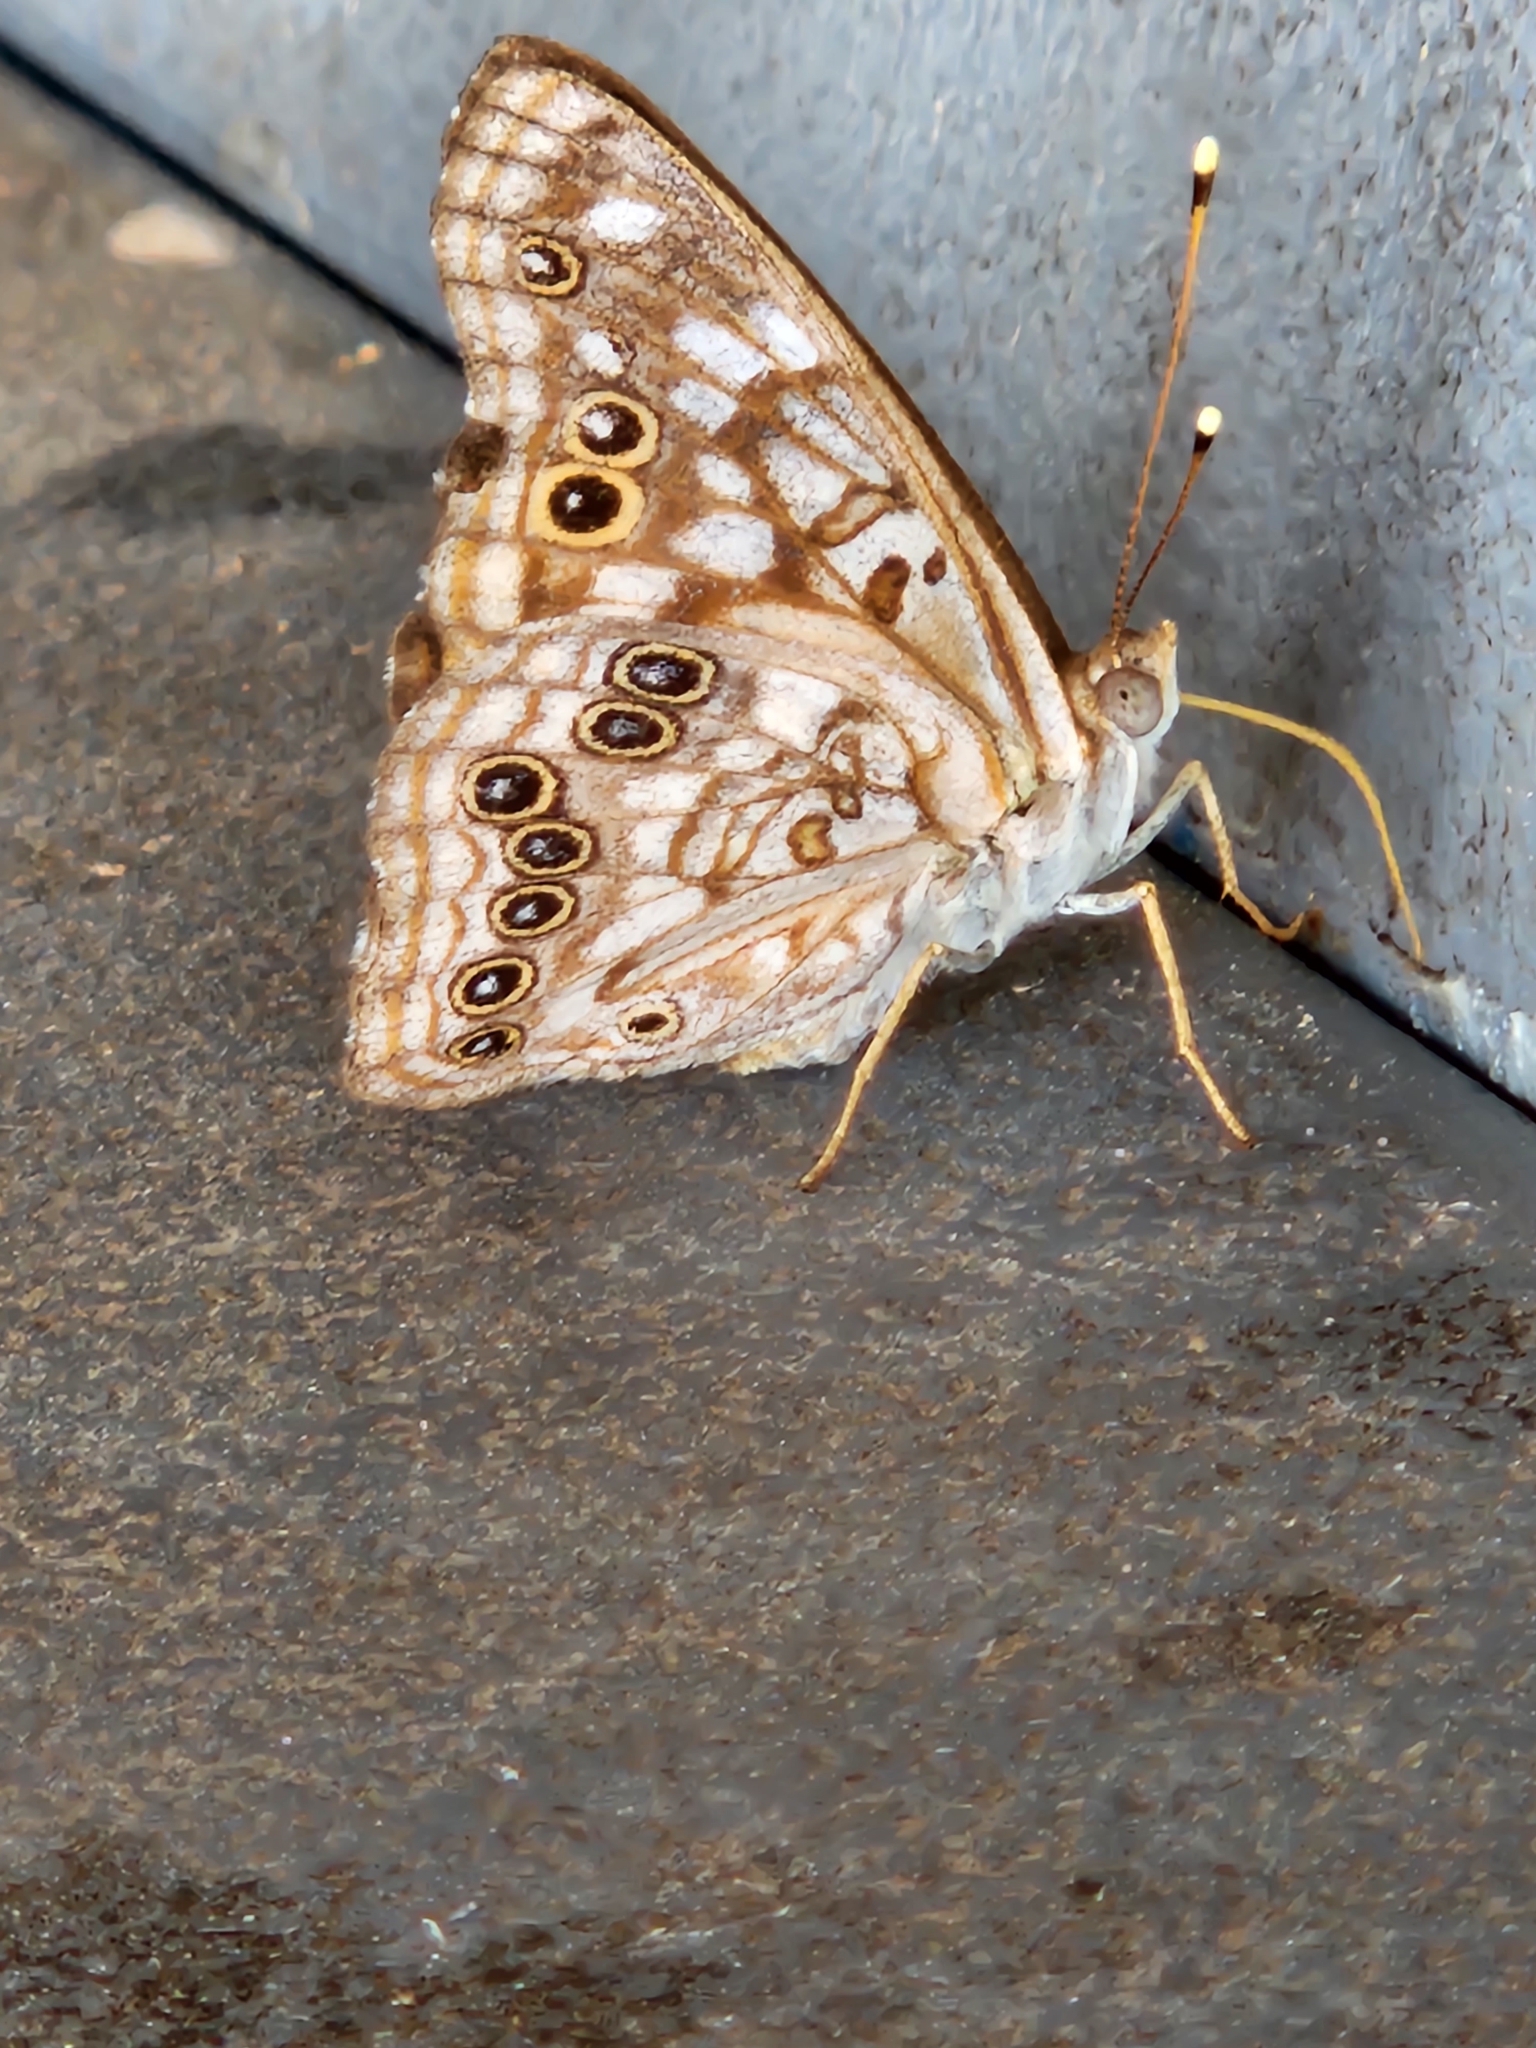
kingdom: Animalia
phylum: Arthropoda
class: Insecta
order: Lepidoptera
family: Nymphalidae
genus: Asterocampa
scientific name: Asterocampa celtis
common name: Hackberry emperor
